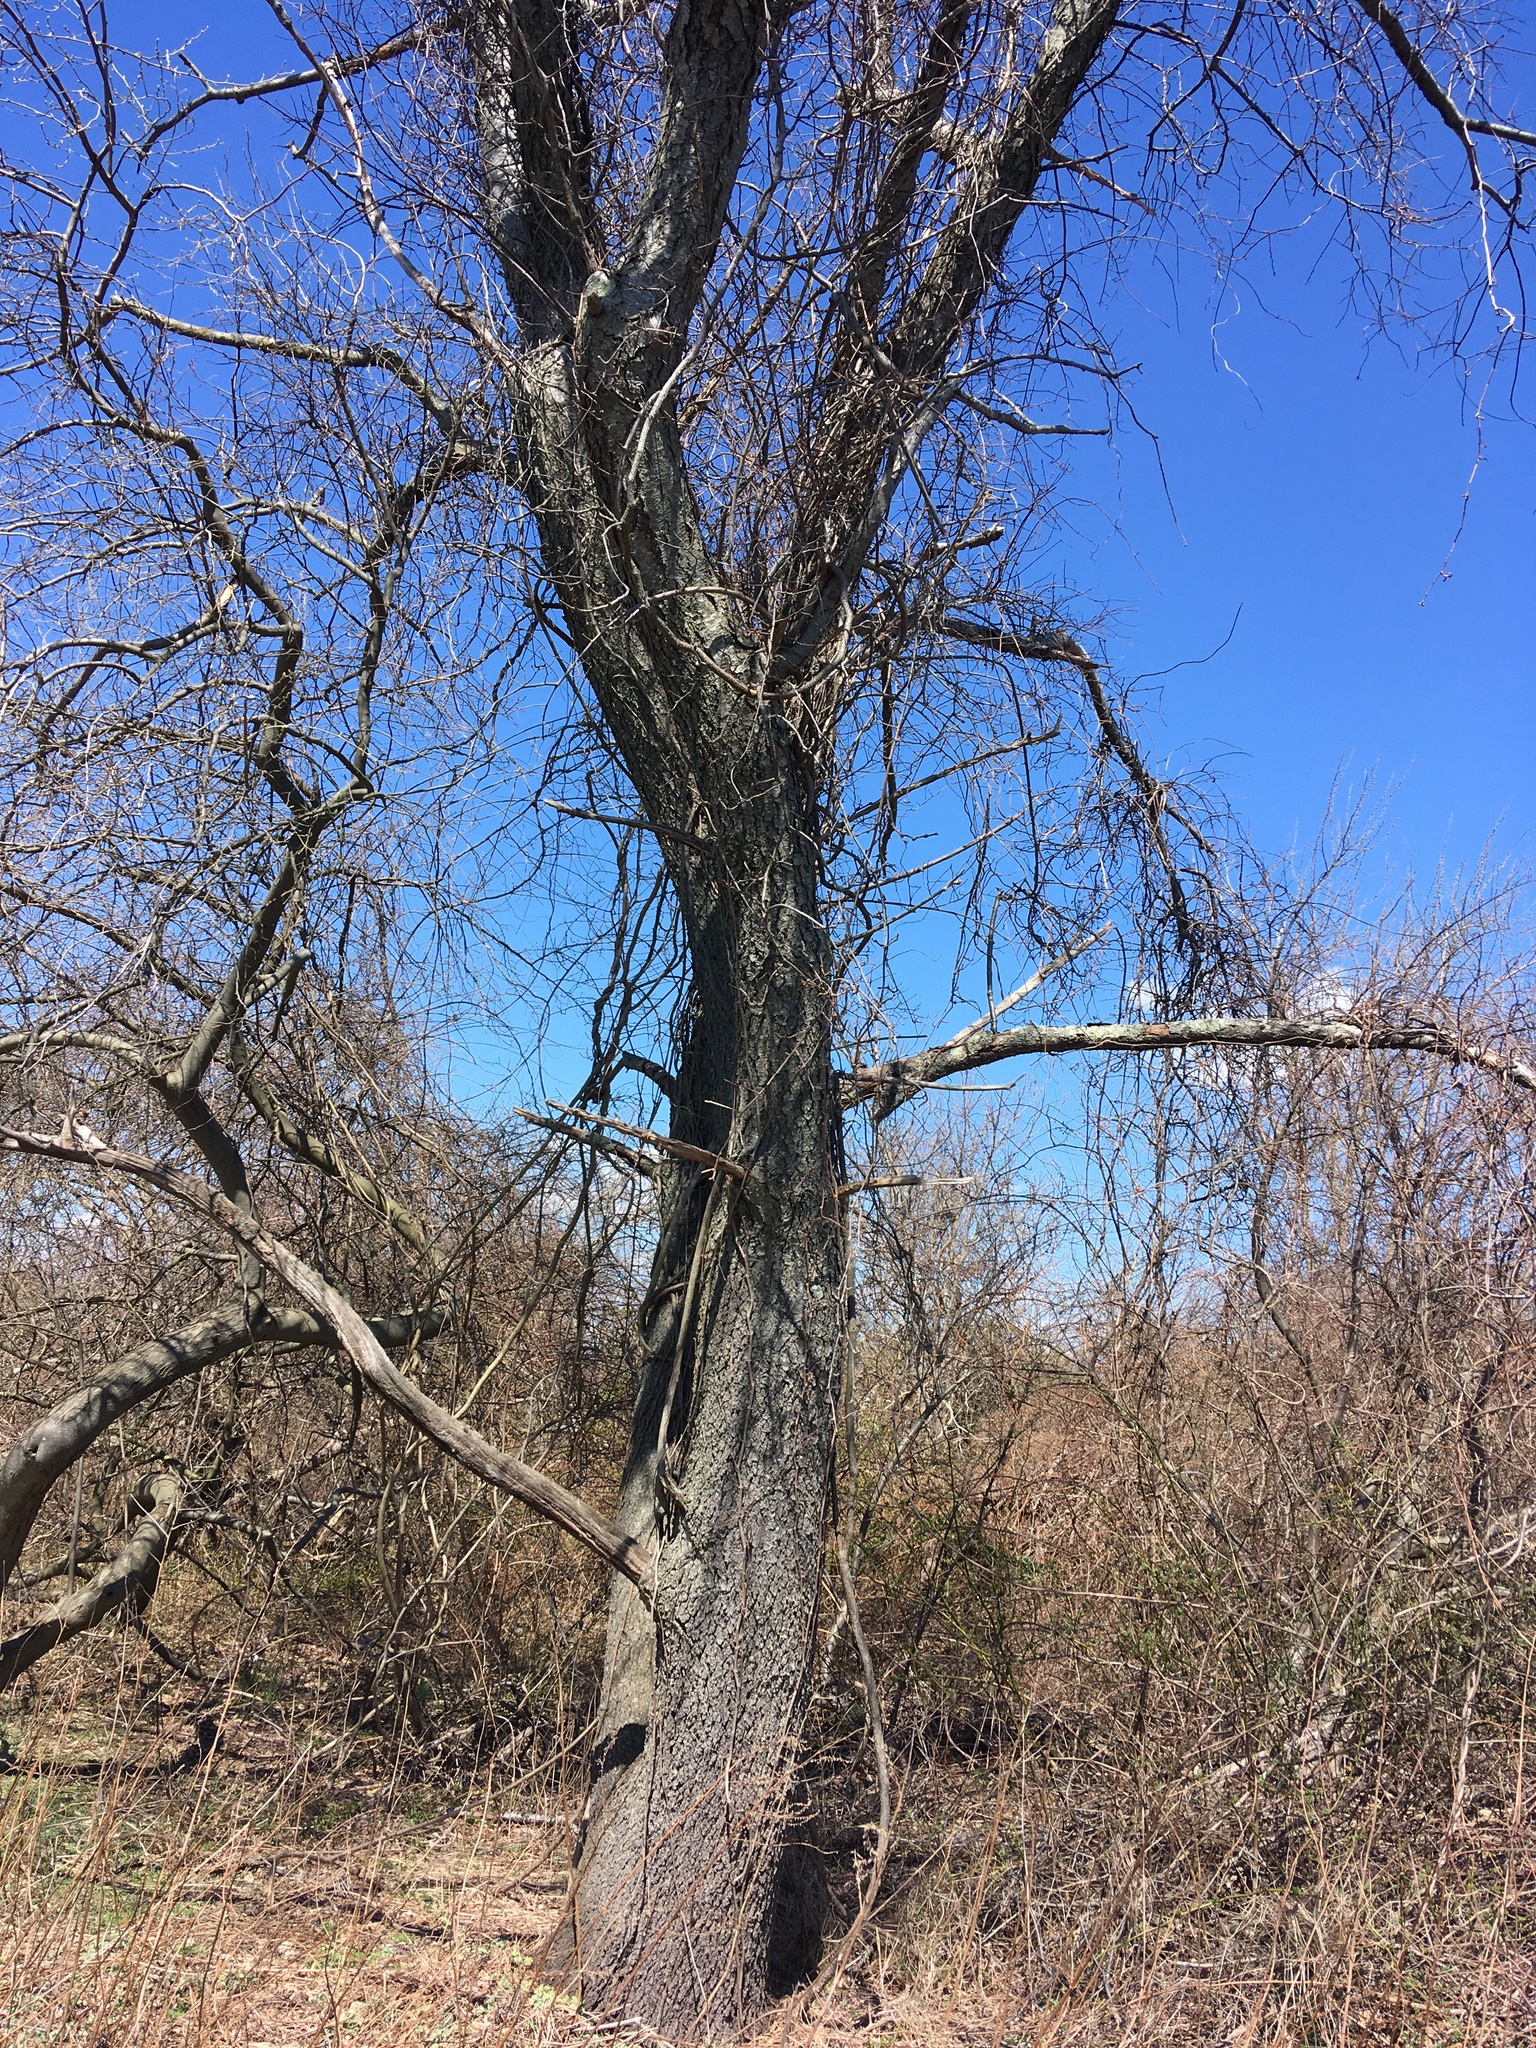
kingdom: Plantae
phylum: Tracheophyta
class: Magnoliopsida
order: Rosales
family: Rosaceae
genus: Prunus
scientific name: Prunus serotina
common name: Black cherry
